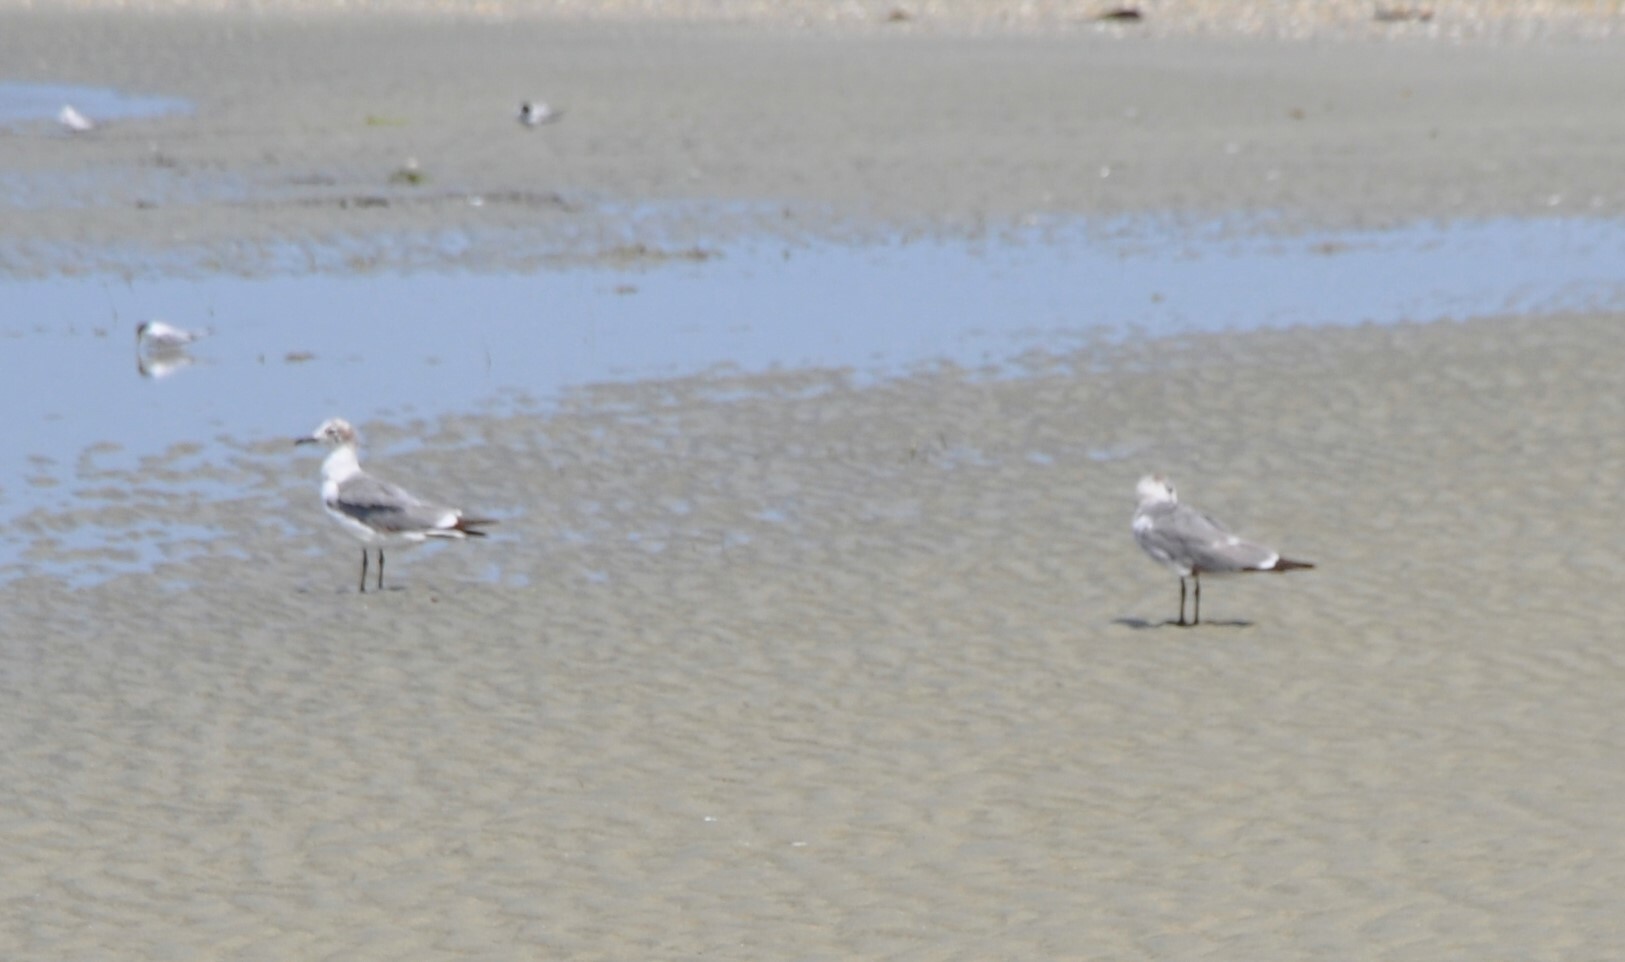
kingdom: Animalia
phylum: Chordata
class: Aves
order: Charadriiformes
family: Laridae
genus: Leucophaeus
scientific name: Leucophaeus atricilla
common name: Laughing gull
